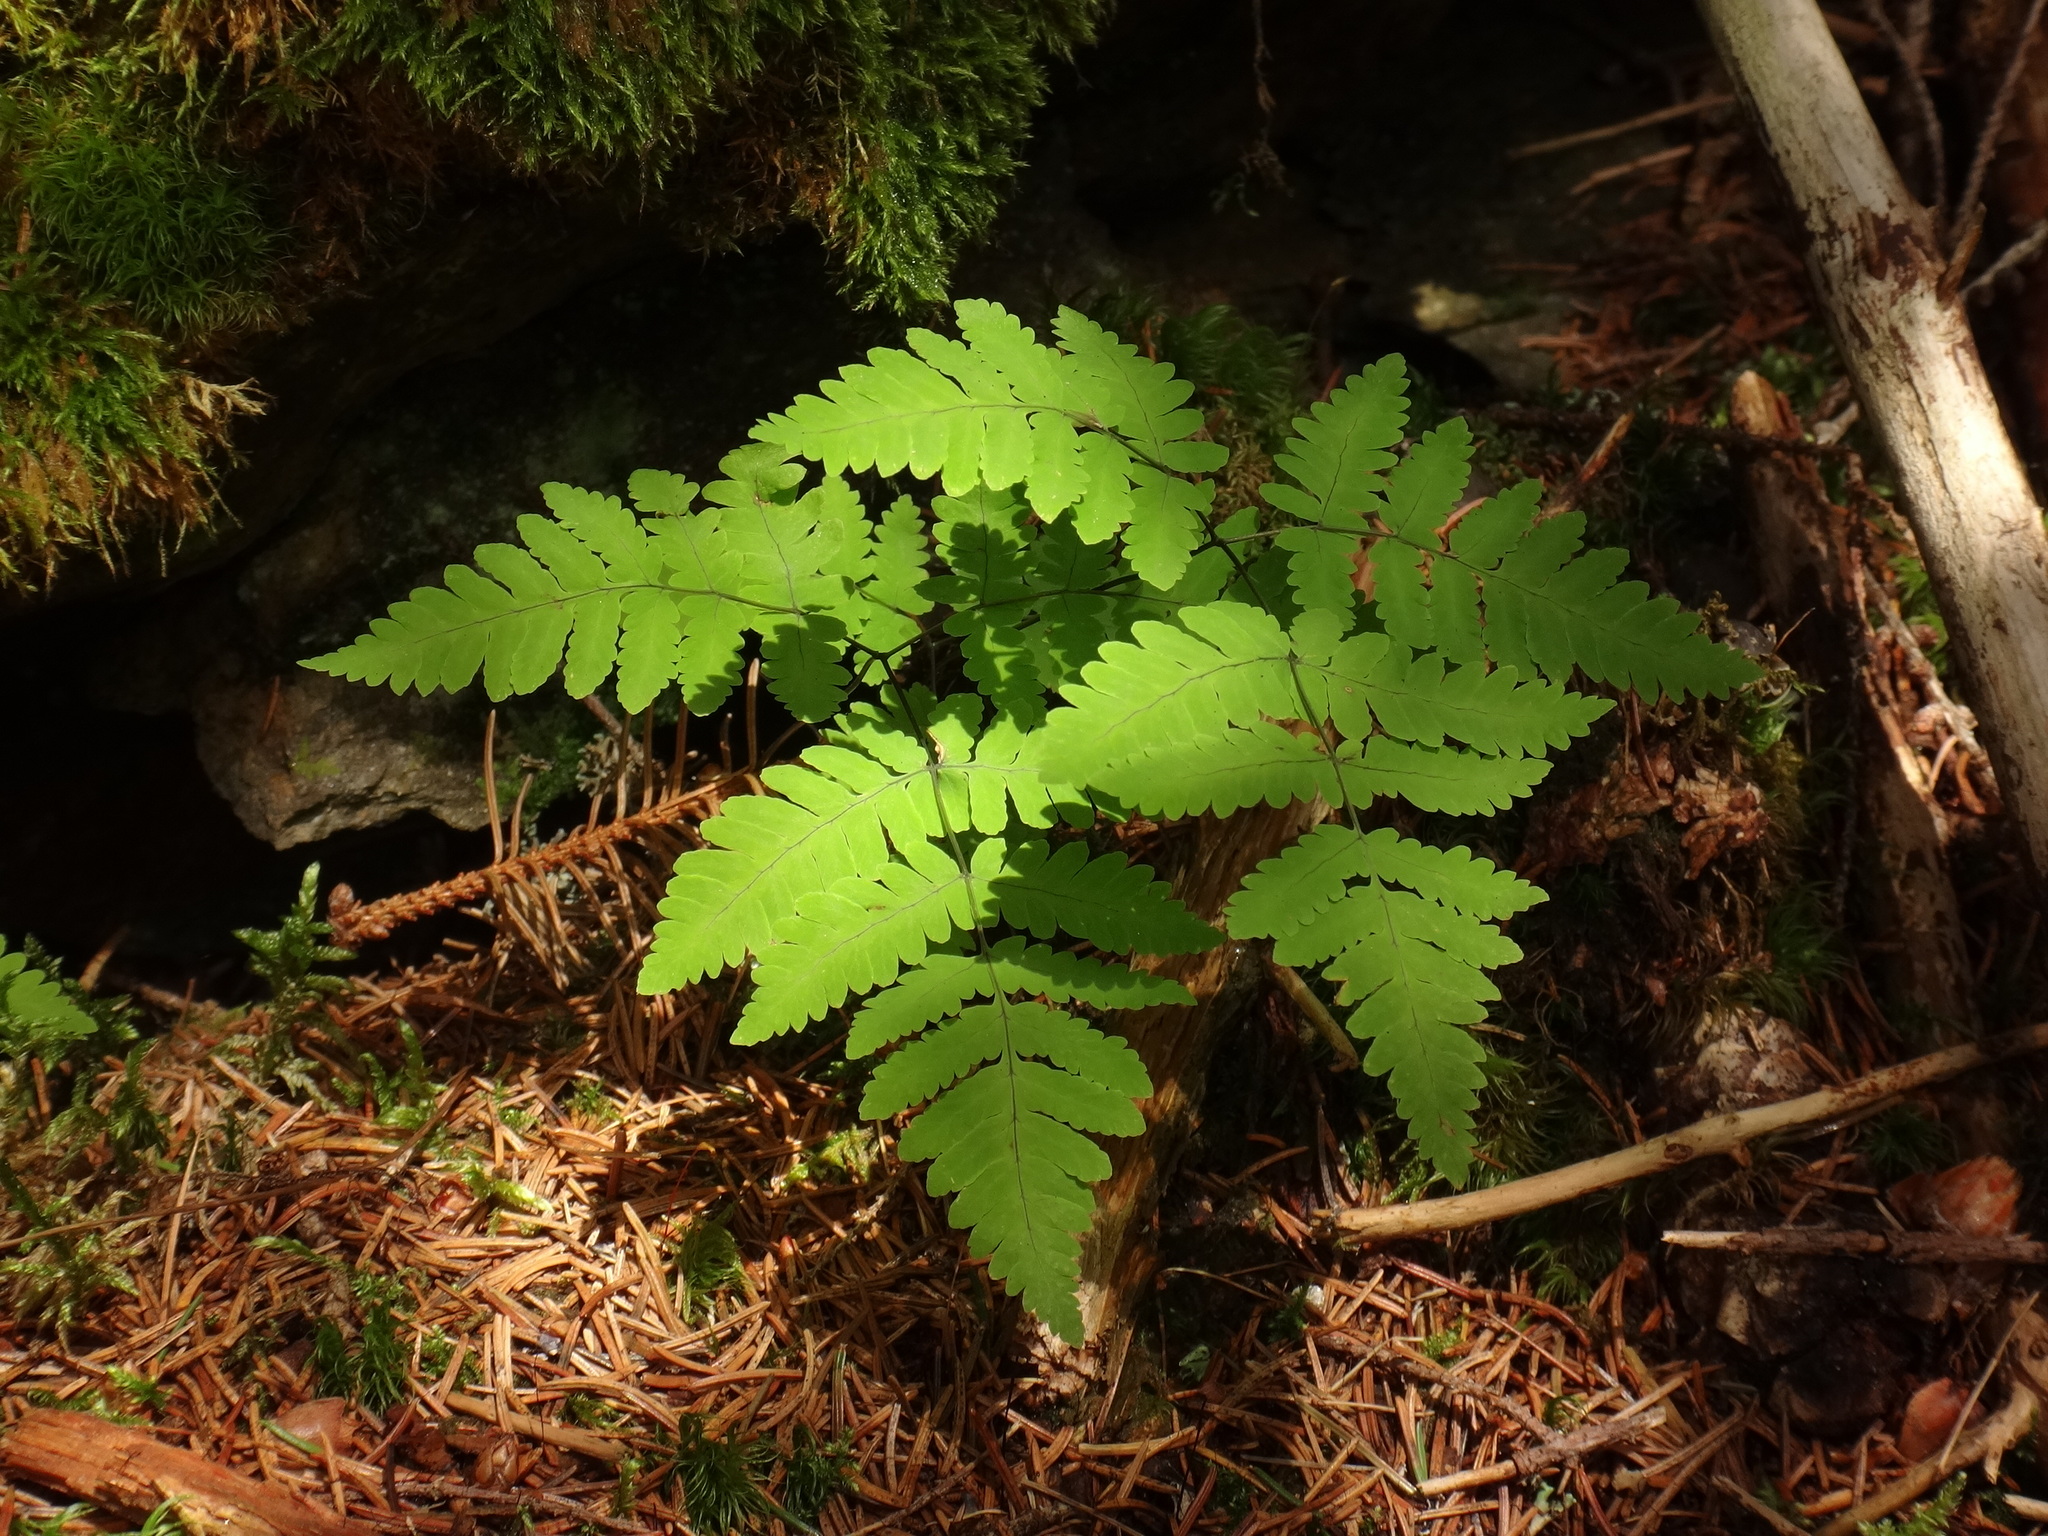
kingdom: Plantae
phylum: Tracheophyta
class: Polypodiopsida
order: Polypodiales
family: Cystopteridaceae
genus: Gymnocarpium
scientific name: Gymnocarpium dryopteris
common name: Oak fern
